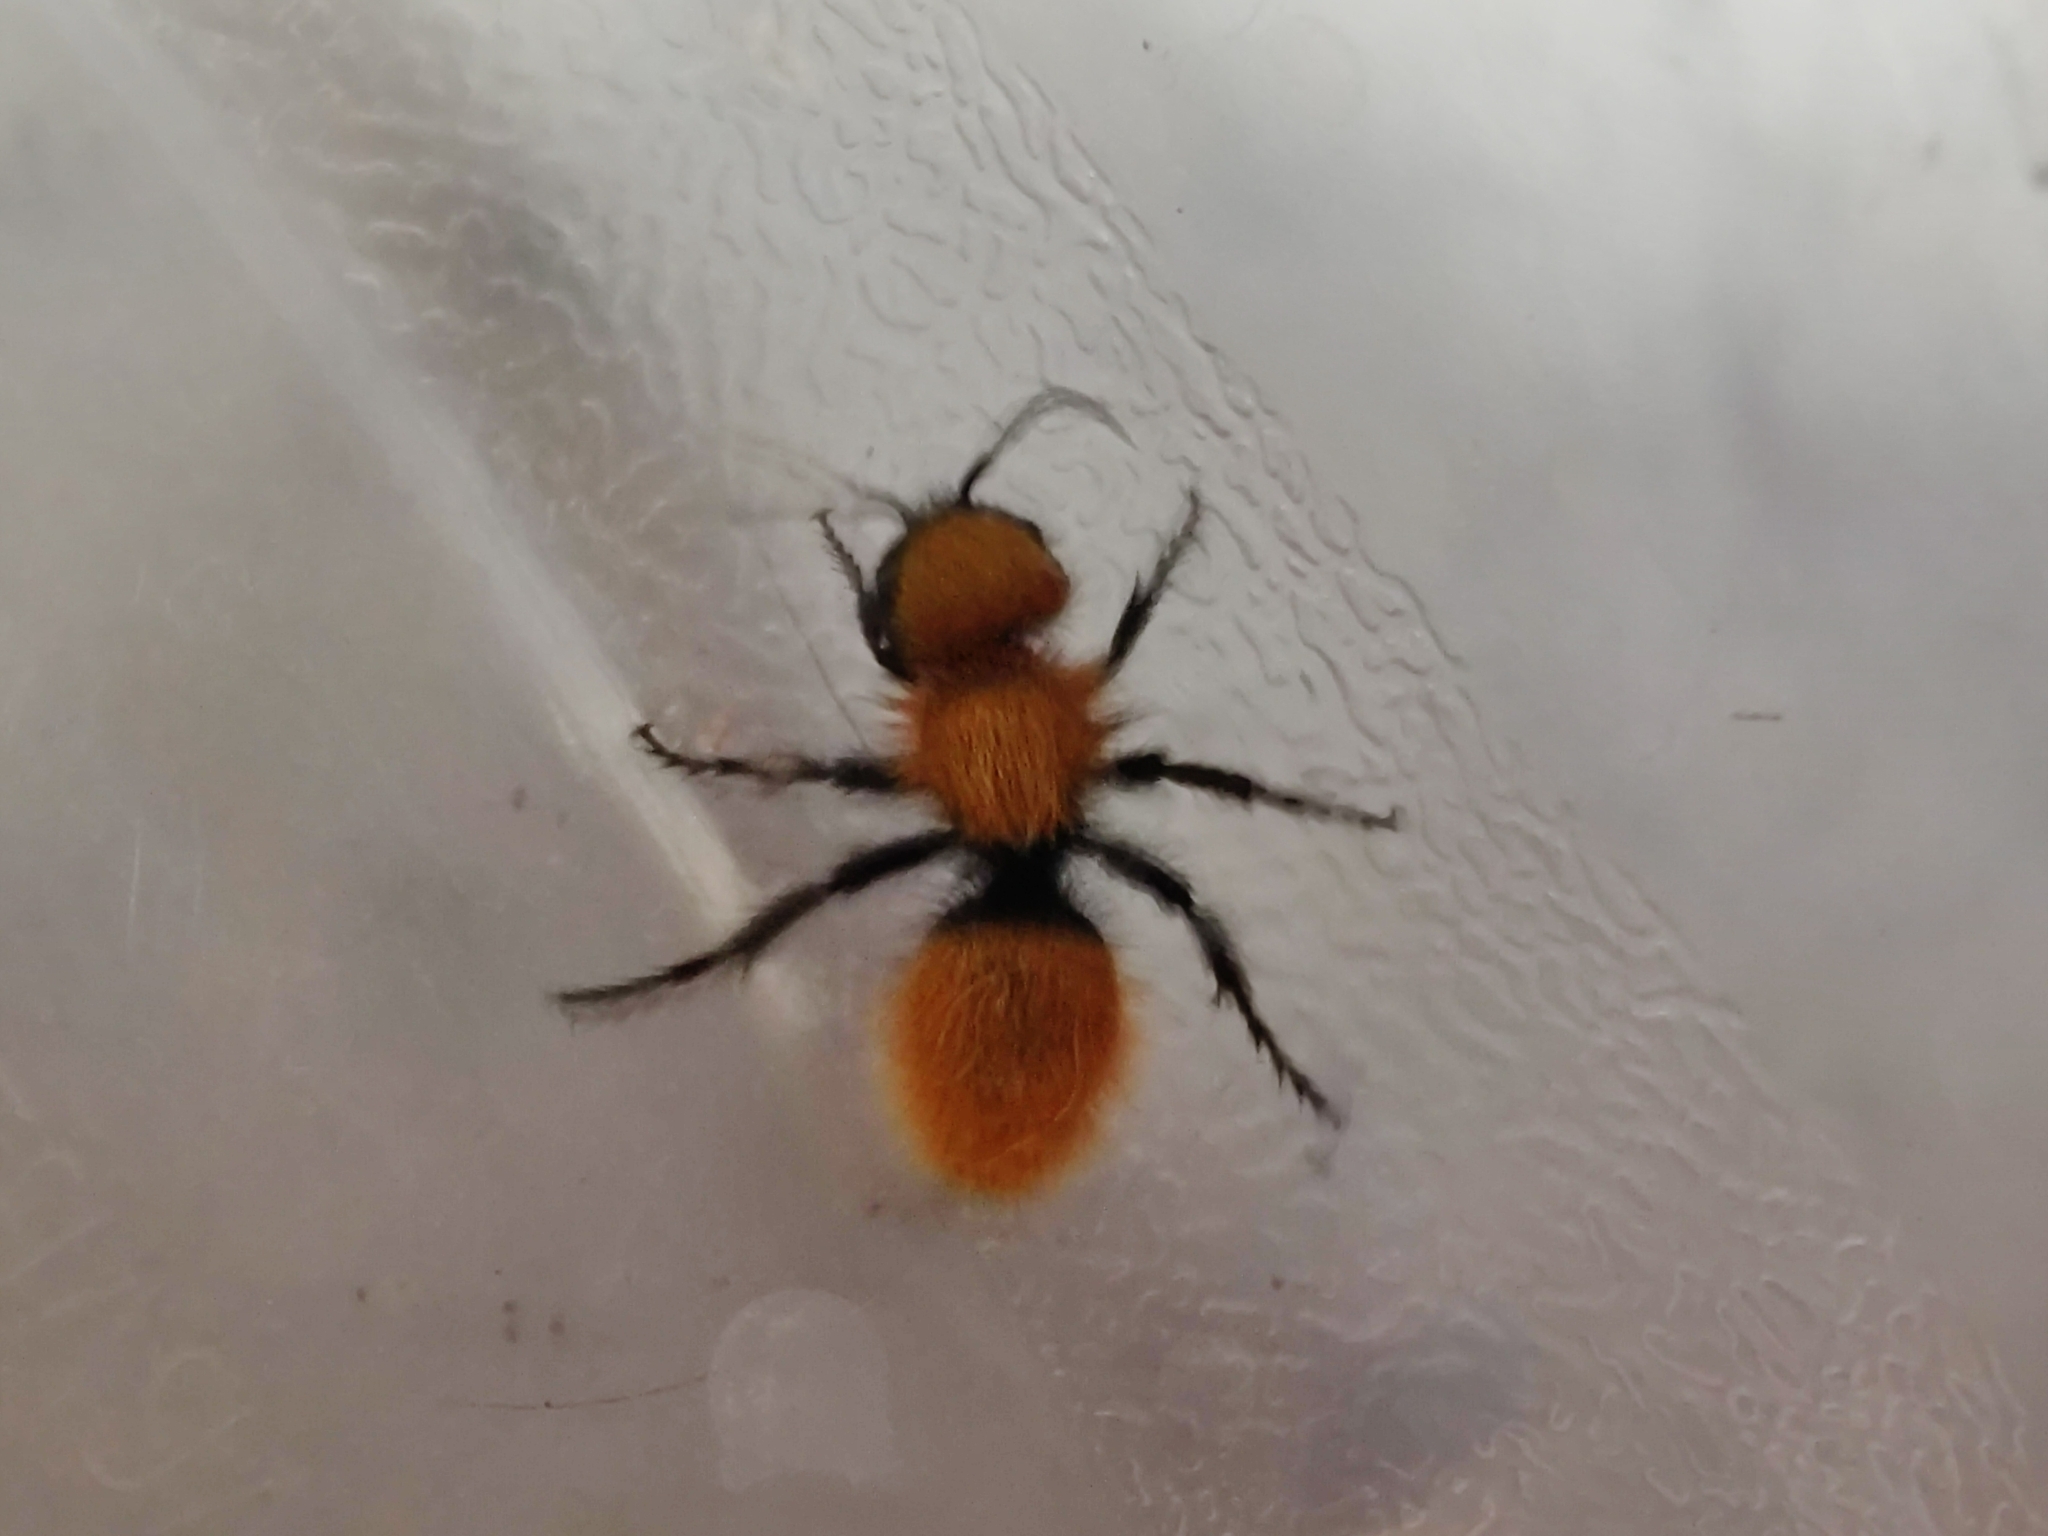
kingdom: Animalia
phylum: Arthropoda
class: Insecta
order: Hymenoptera
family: Mutillidae
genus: Dasymutilla
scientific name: Dasymutilla
